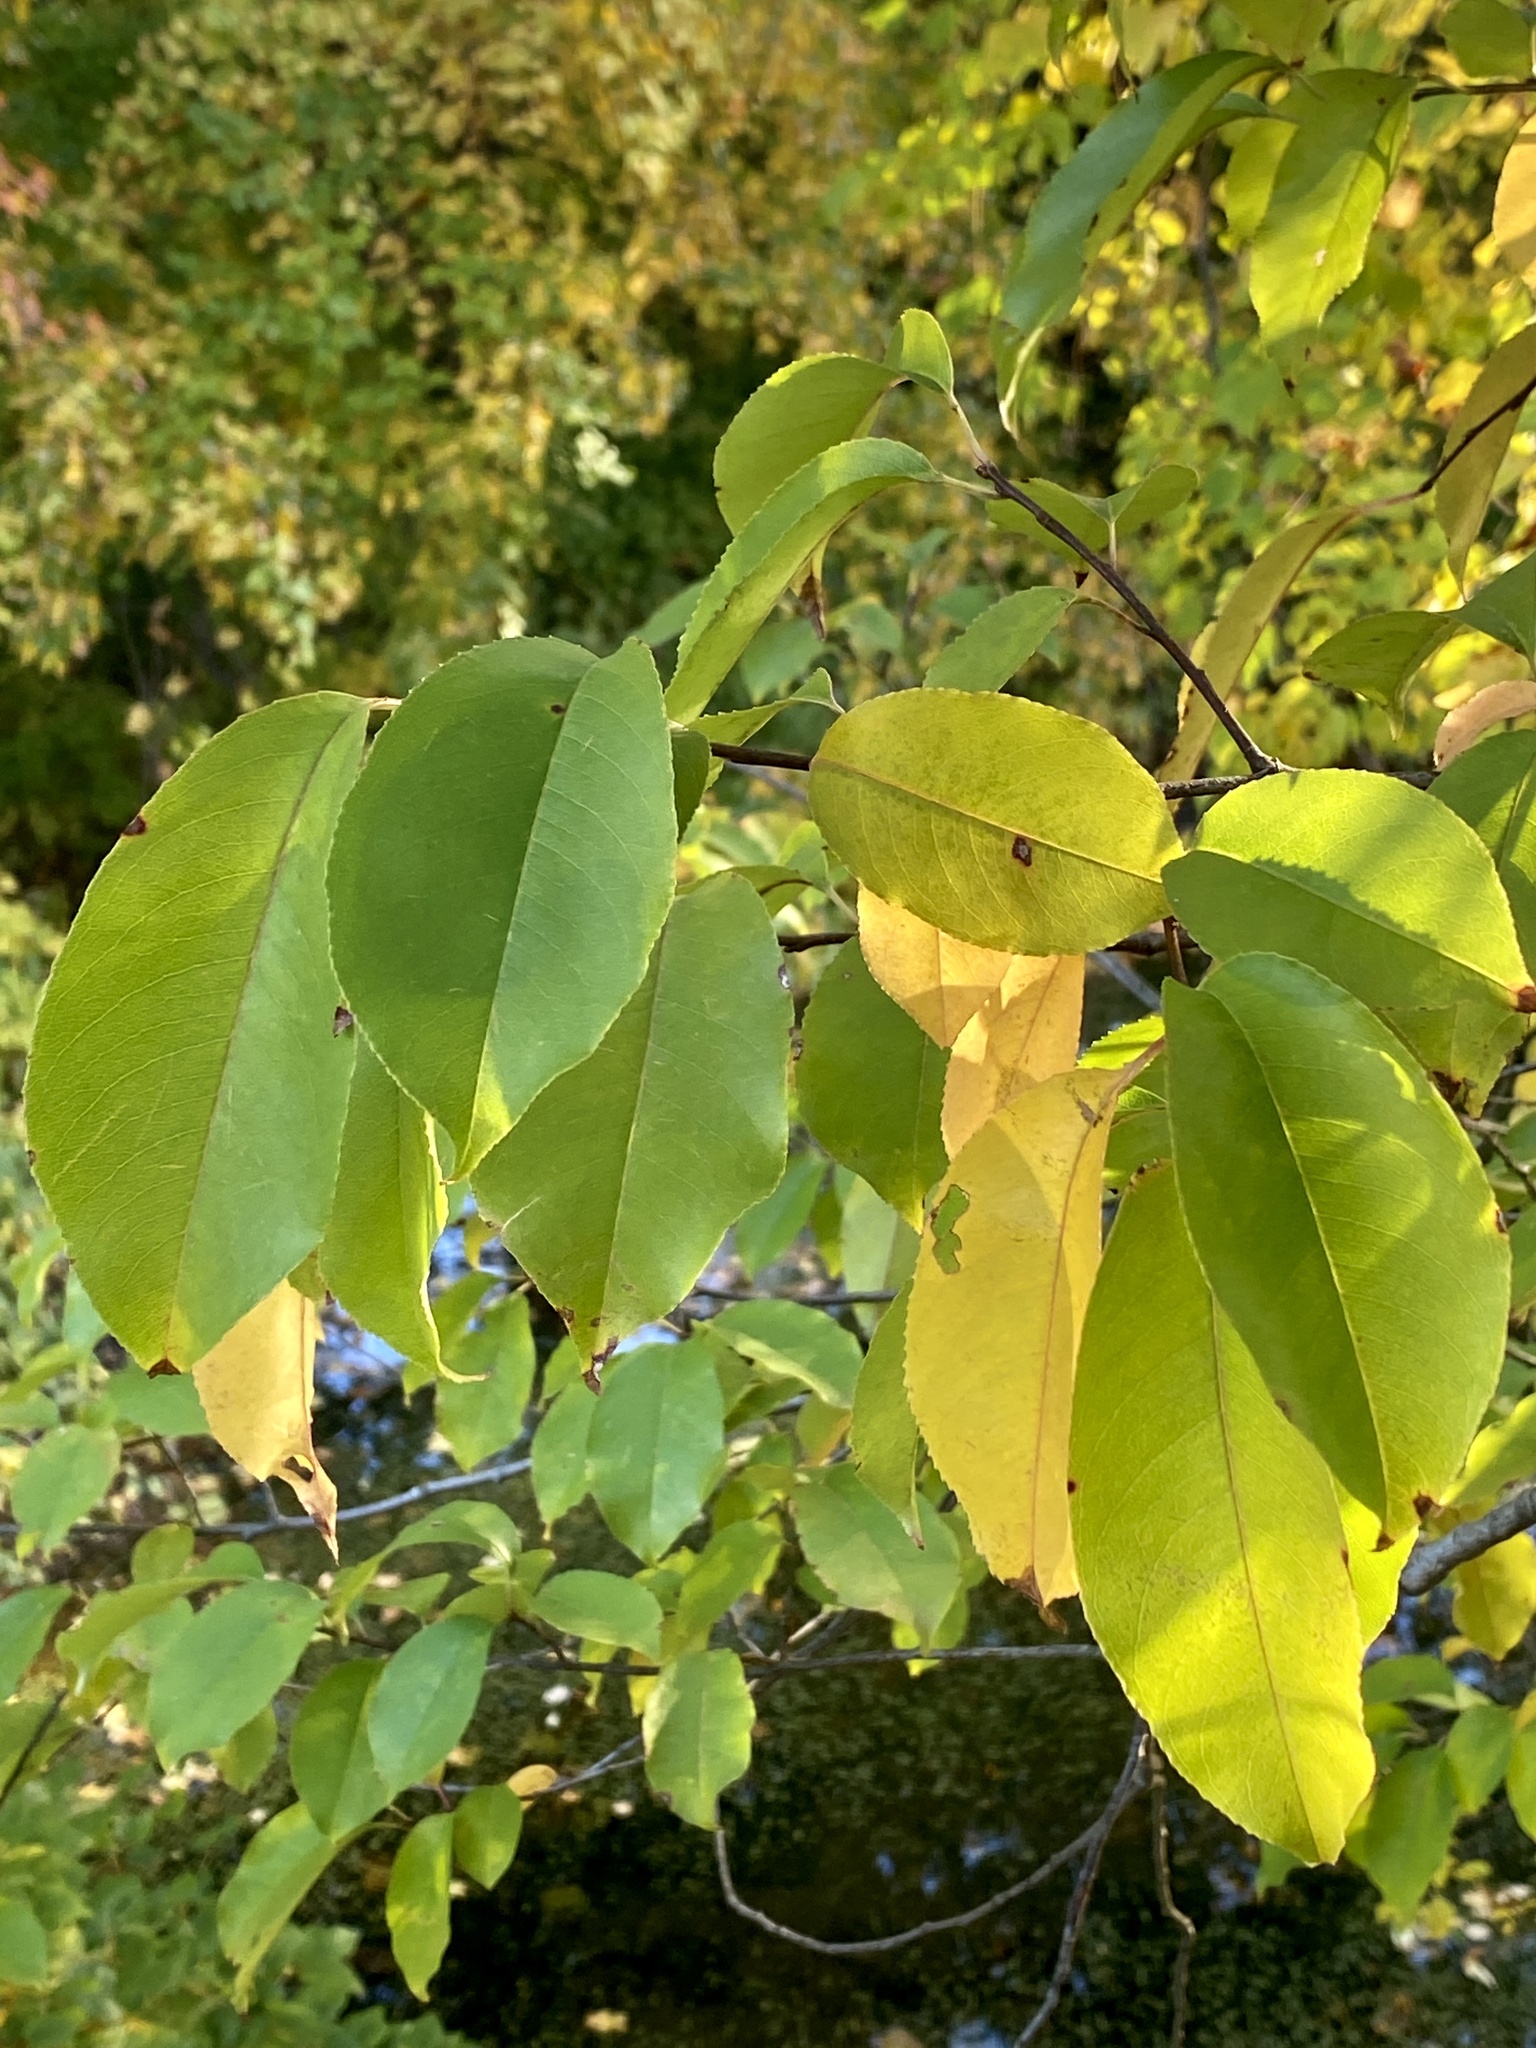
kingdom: Plantae
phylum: Tracheophyta
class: Magnoliopsida
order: Rosales
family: Rosaceae
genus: Prunus
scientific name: Prunus serotina
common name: Black cherry
